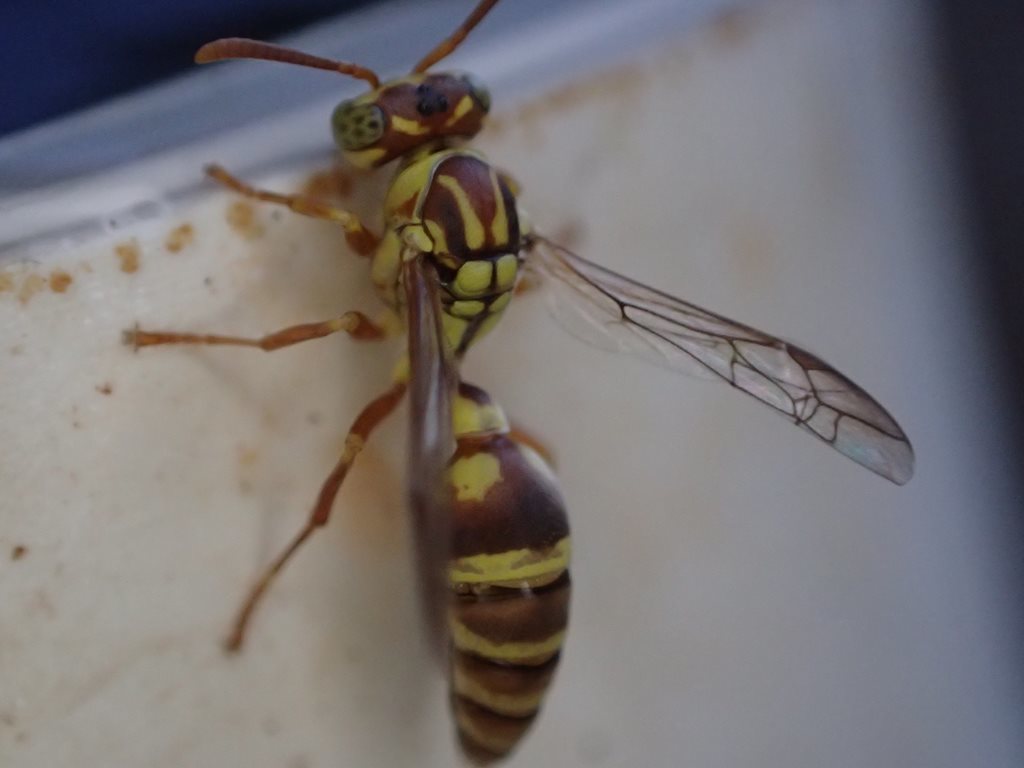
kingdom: Animalia
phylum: Arthropoda
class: Insecta
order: Hymenoptera
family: Vespidae
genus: Ropalidia
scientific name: Ropalidia romandi
